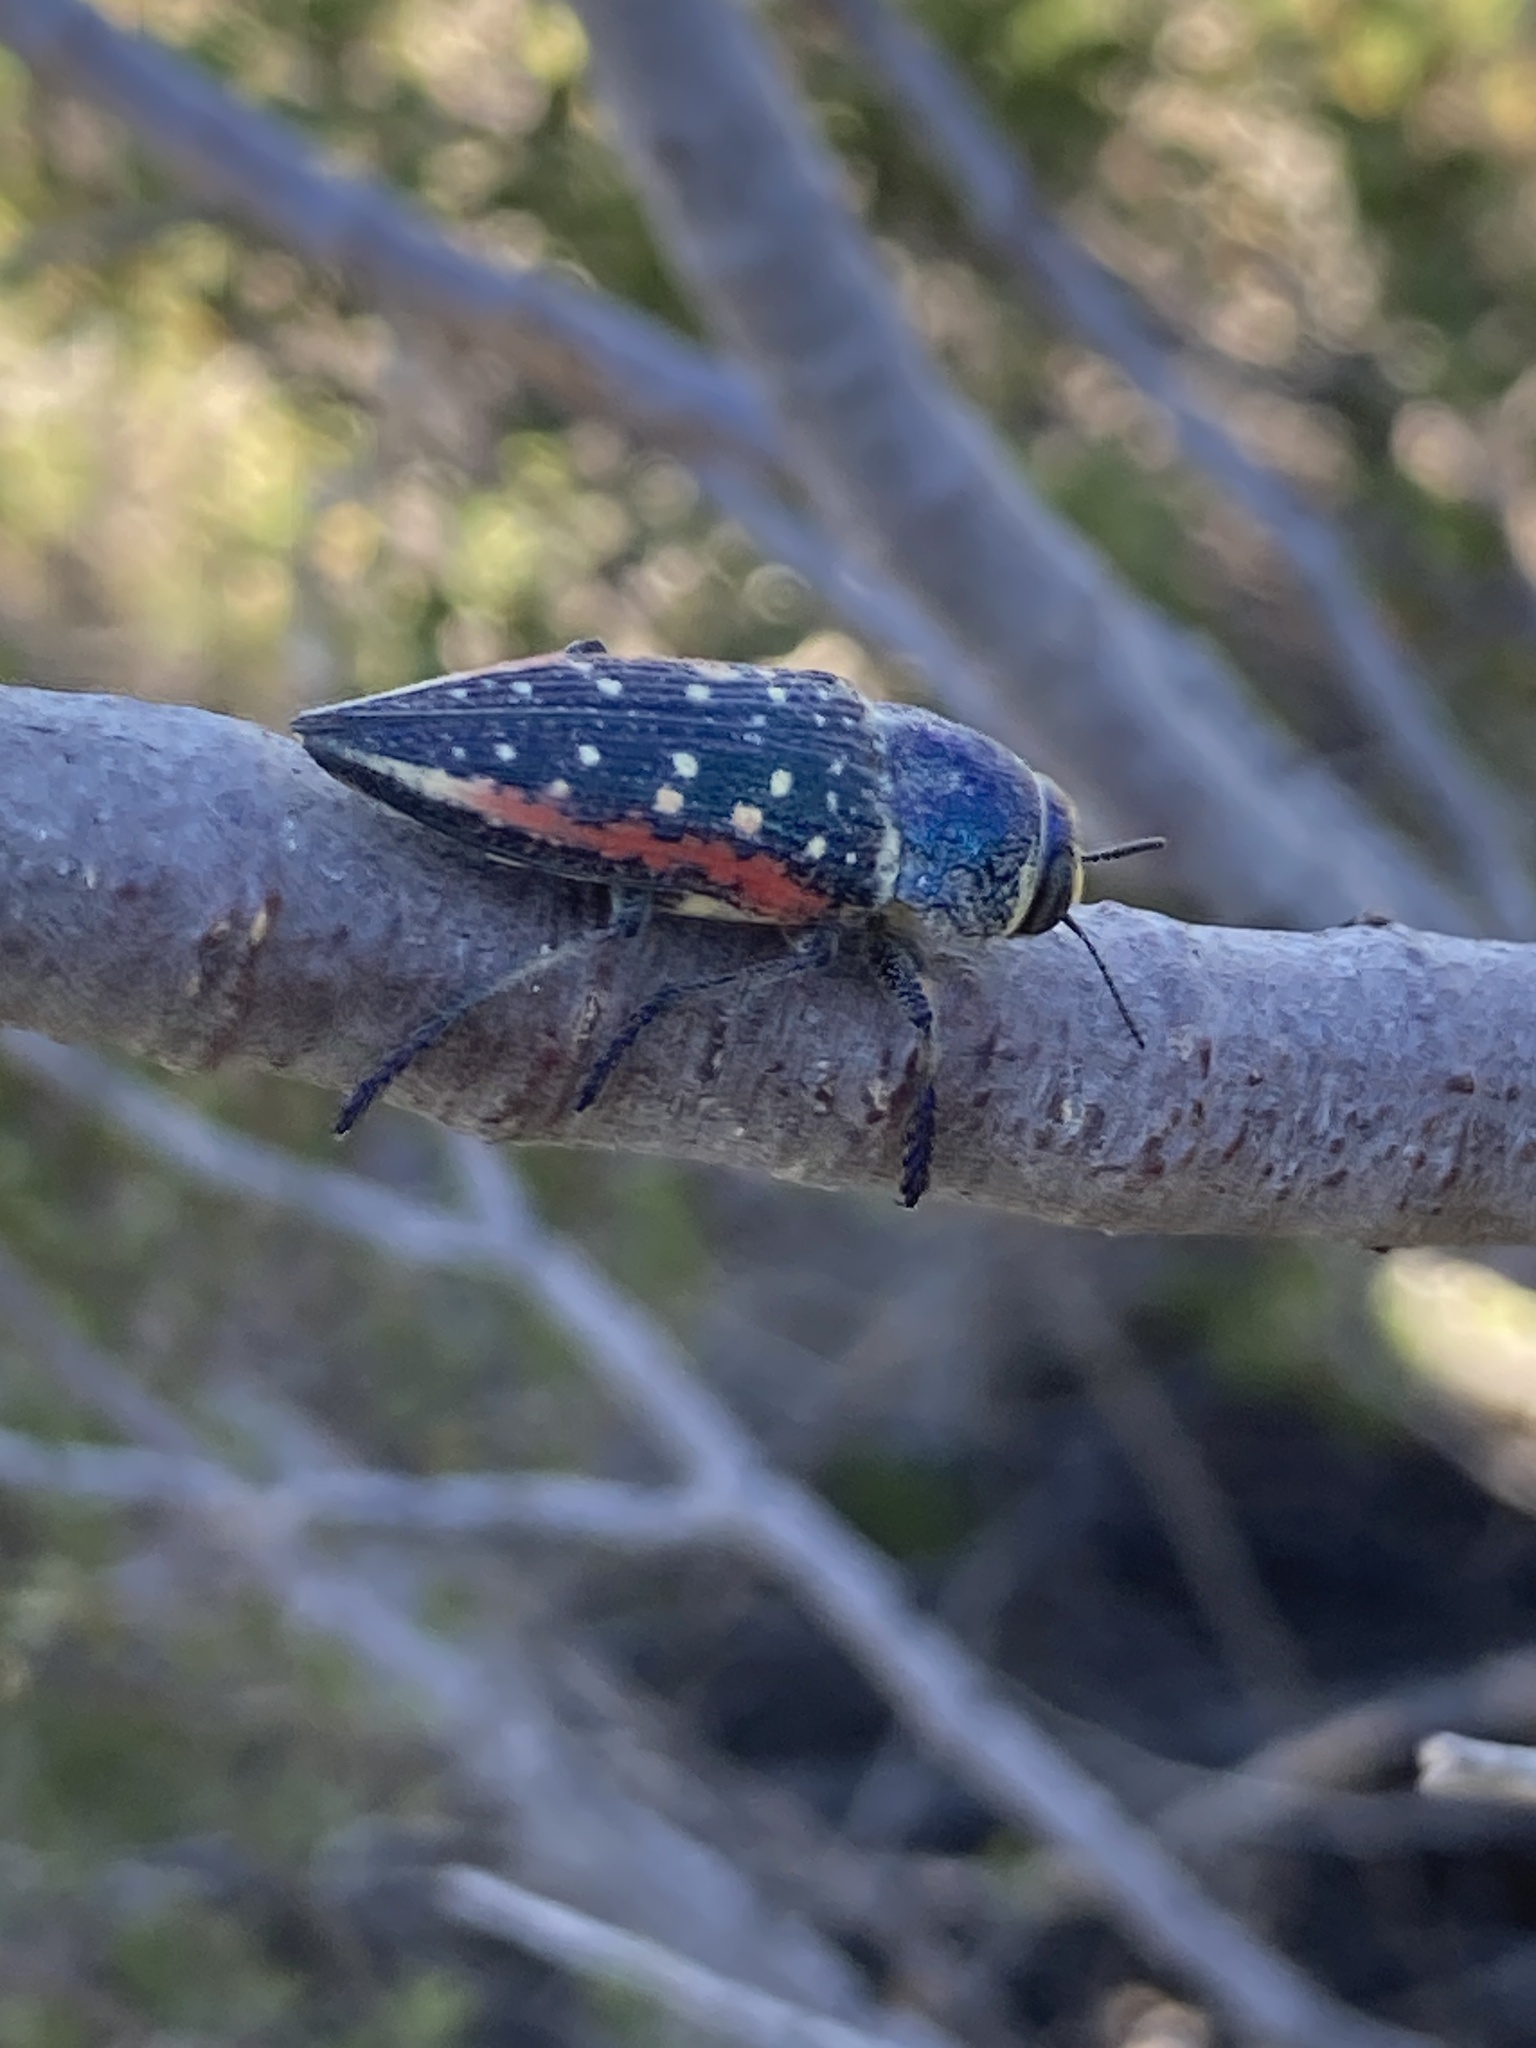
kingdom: Animalia
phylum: Arthropoda
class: Insecta
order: Coleoptera
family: Buprestidae
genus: Lampetis
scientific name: Lampetis plagiata
